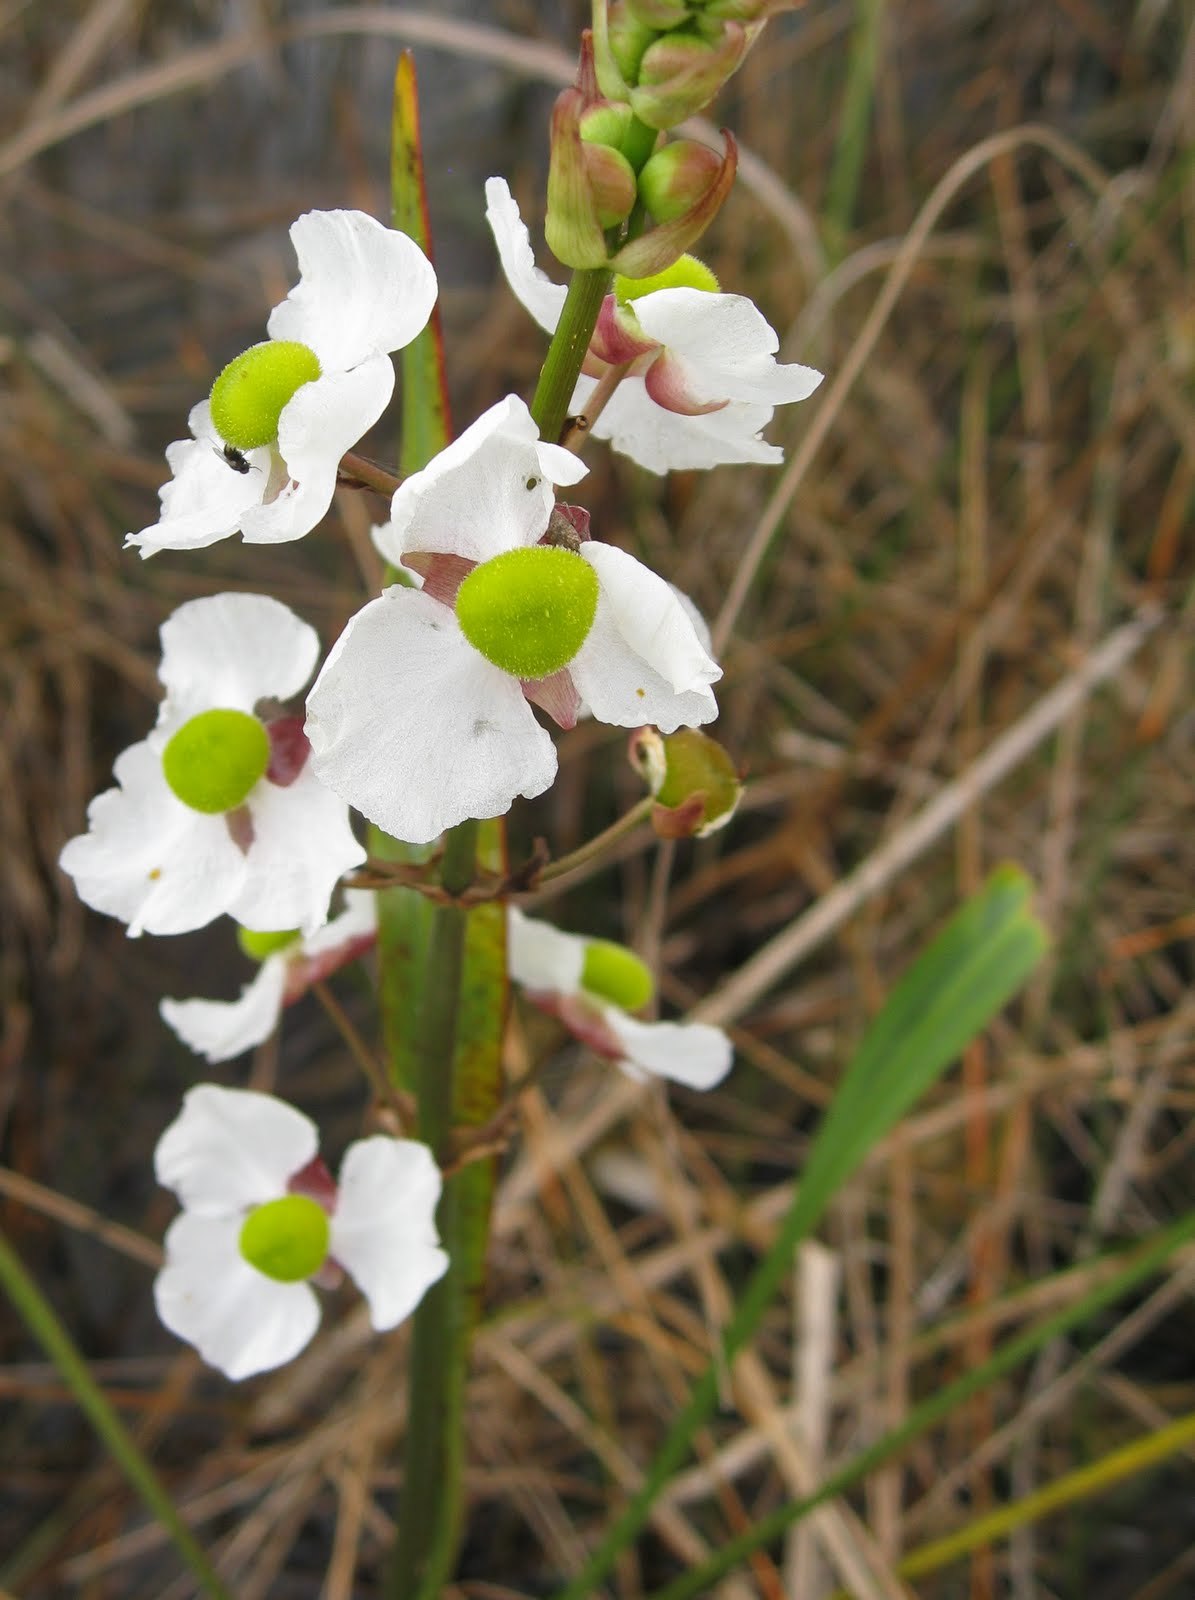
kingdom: Plantae
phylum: Tracheophyta
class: Liliopsida
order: Alismatales
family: Alismataceae
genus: Sagittaria
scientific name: Sagittaria lancifolia
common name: Lance-leaf arrowhead
